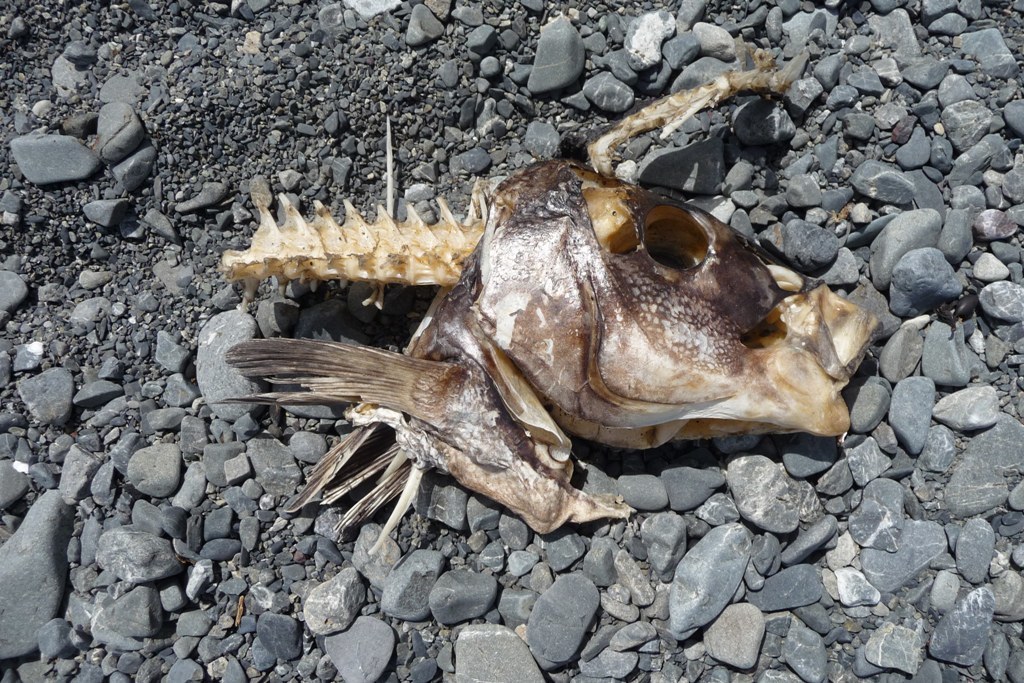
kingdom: Animalia
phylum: Chordata
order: Perciformes
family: Latridae
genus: Latridopsis
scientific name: Latridopsis ciliaris
